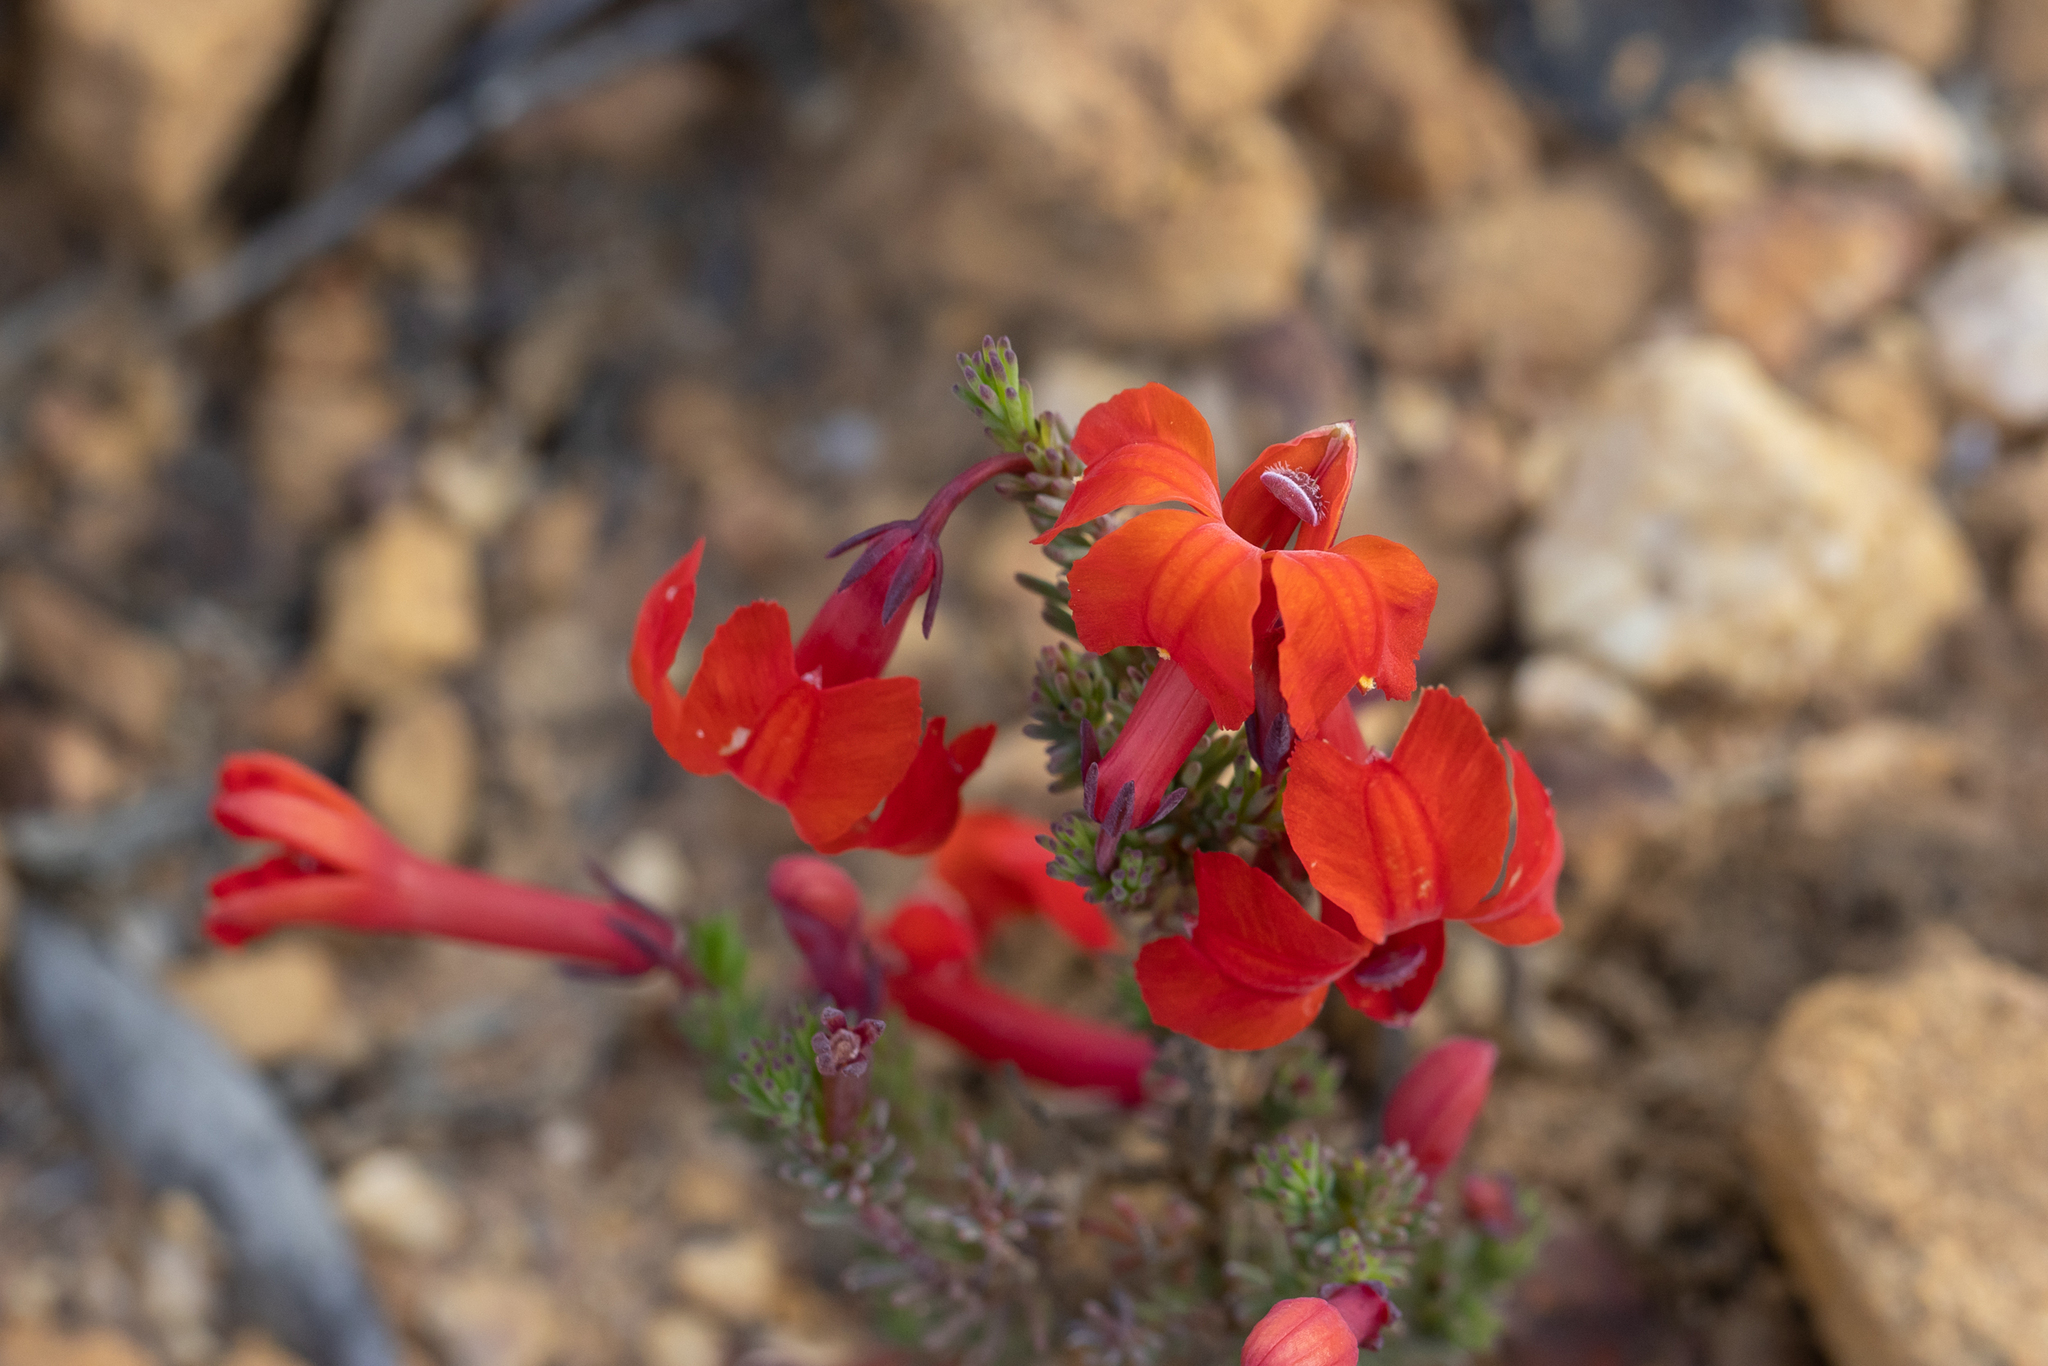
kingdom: Plantae
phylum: Tracheophyta
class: Magnoliopsida
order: Asterales
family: Goodeniaceae
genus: Lechenaultia
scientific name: Lechenaultia formosa
